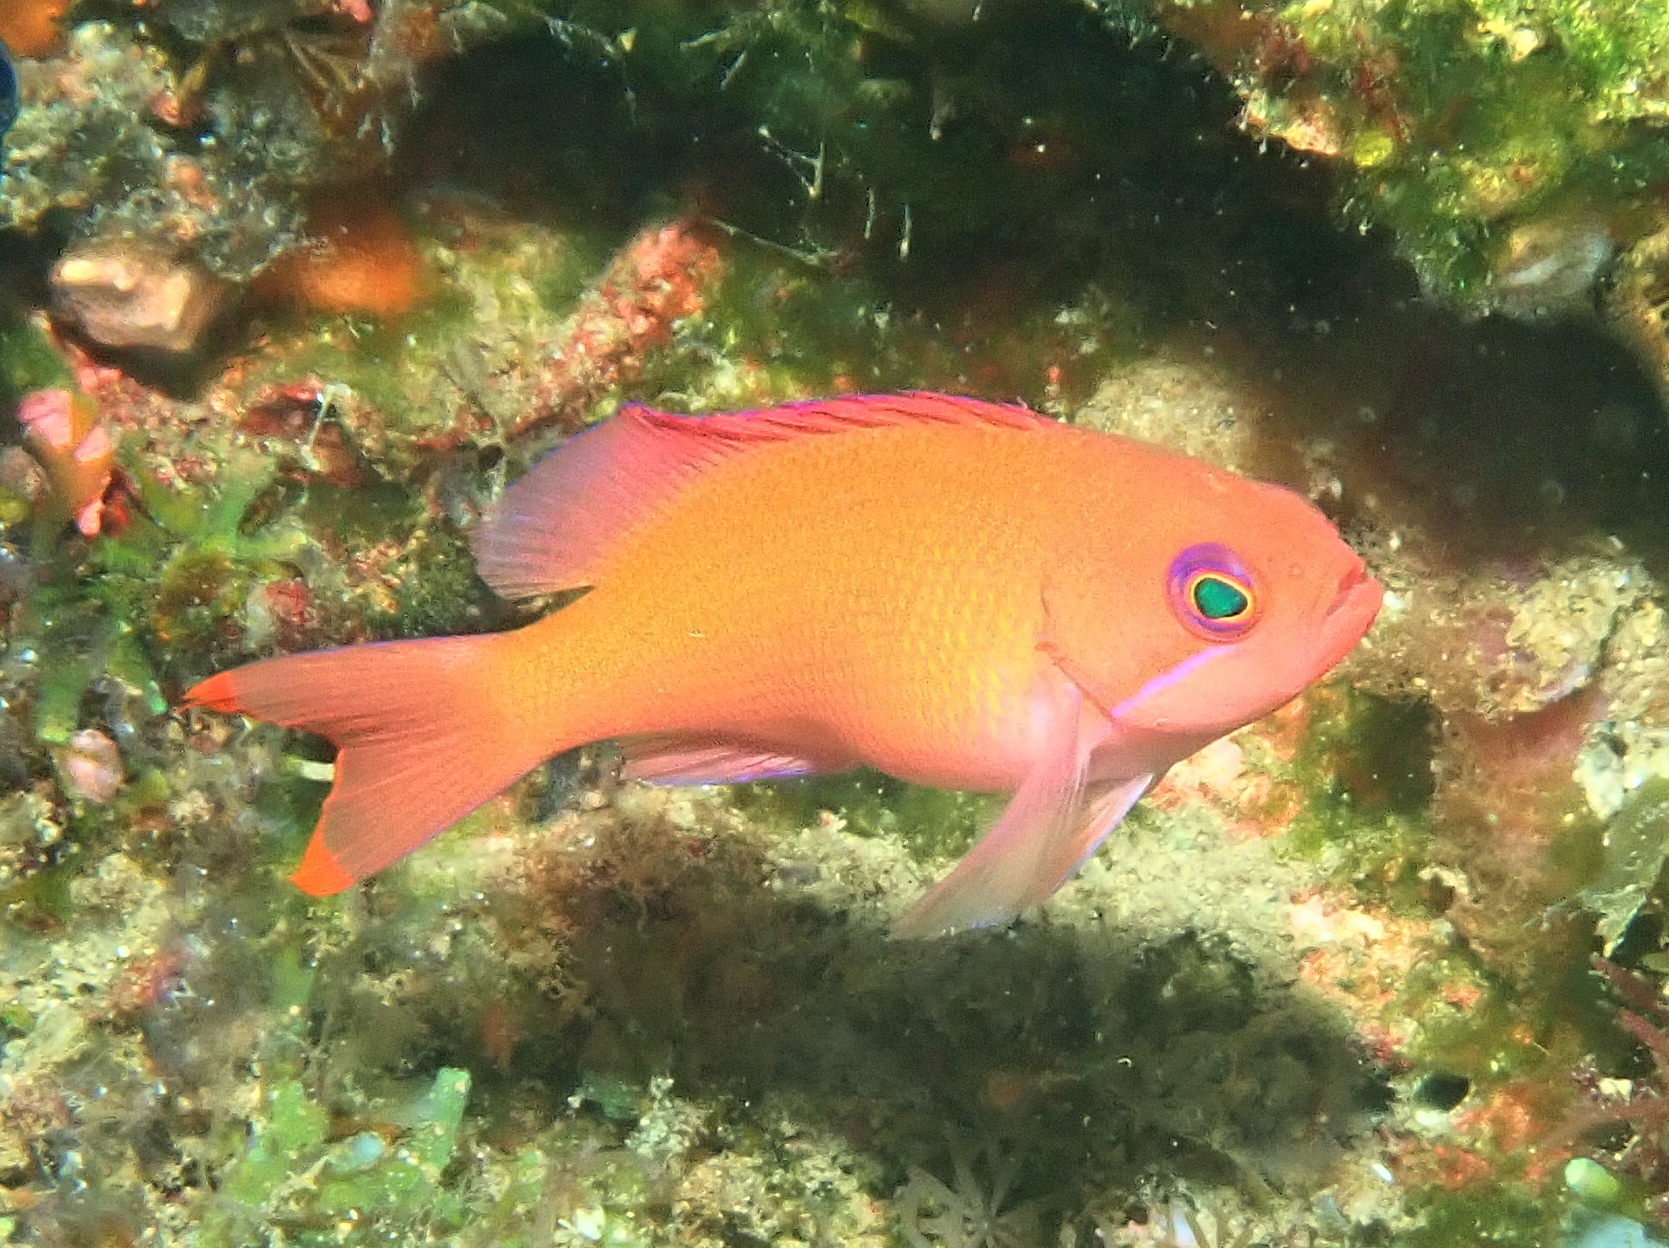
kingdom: Animalia
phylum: Chordata
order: Perciformes
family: Serranidae
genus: Pseudanthias
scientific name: Pseudanthias hypselosoma
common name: Pink basslet
